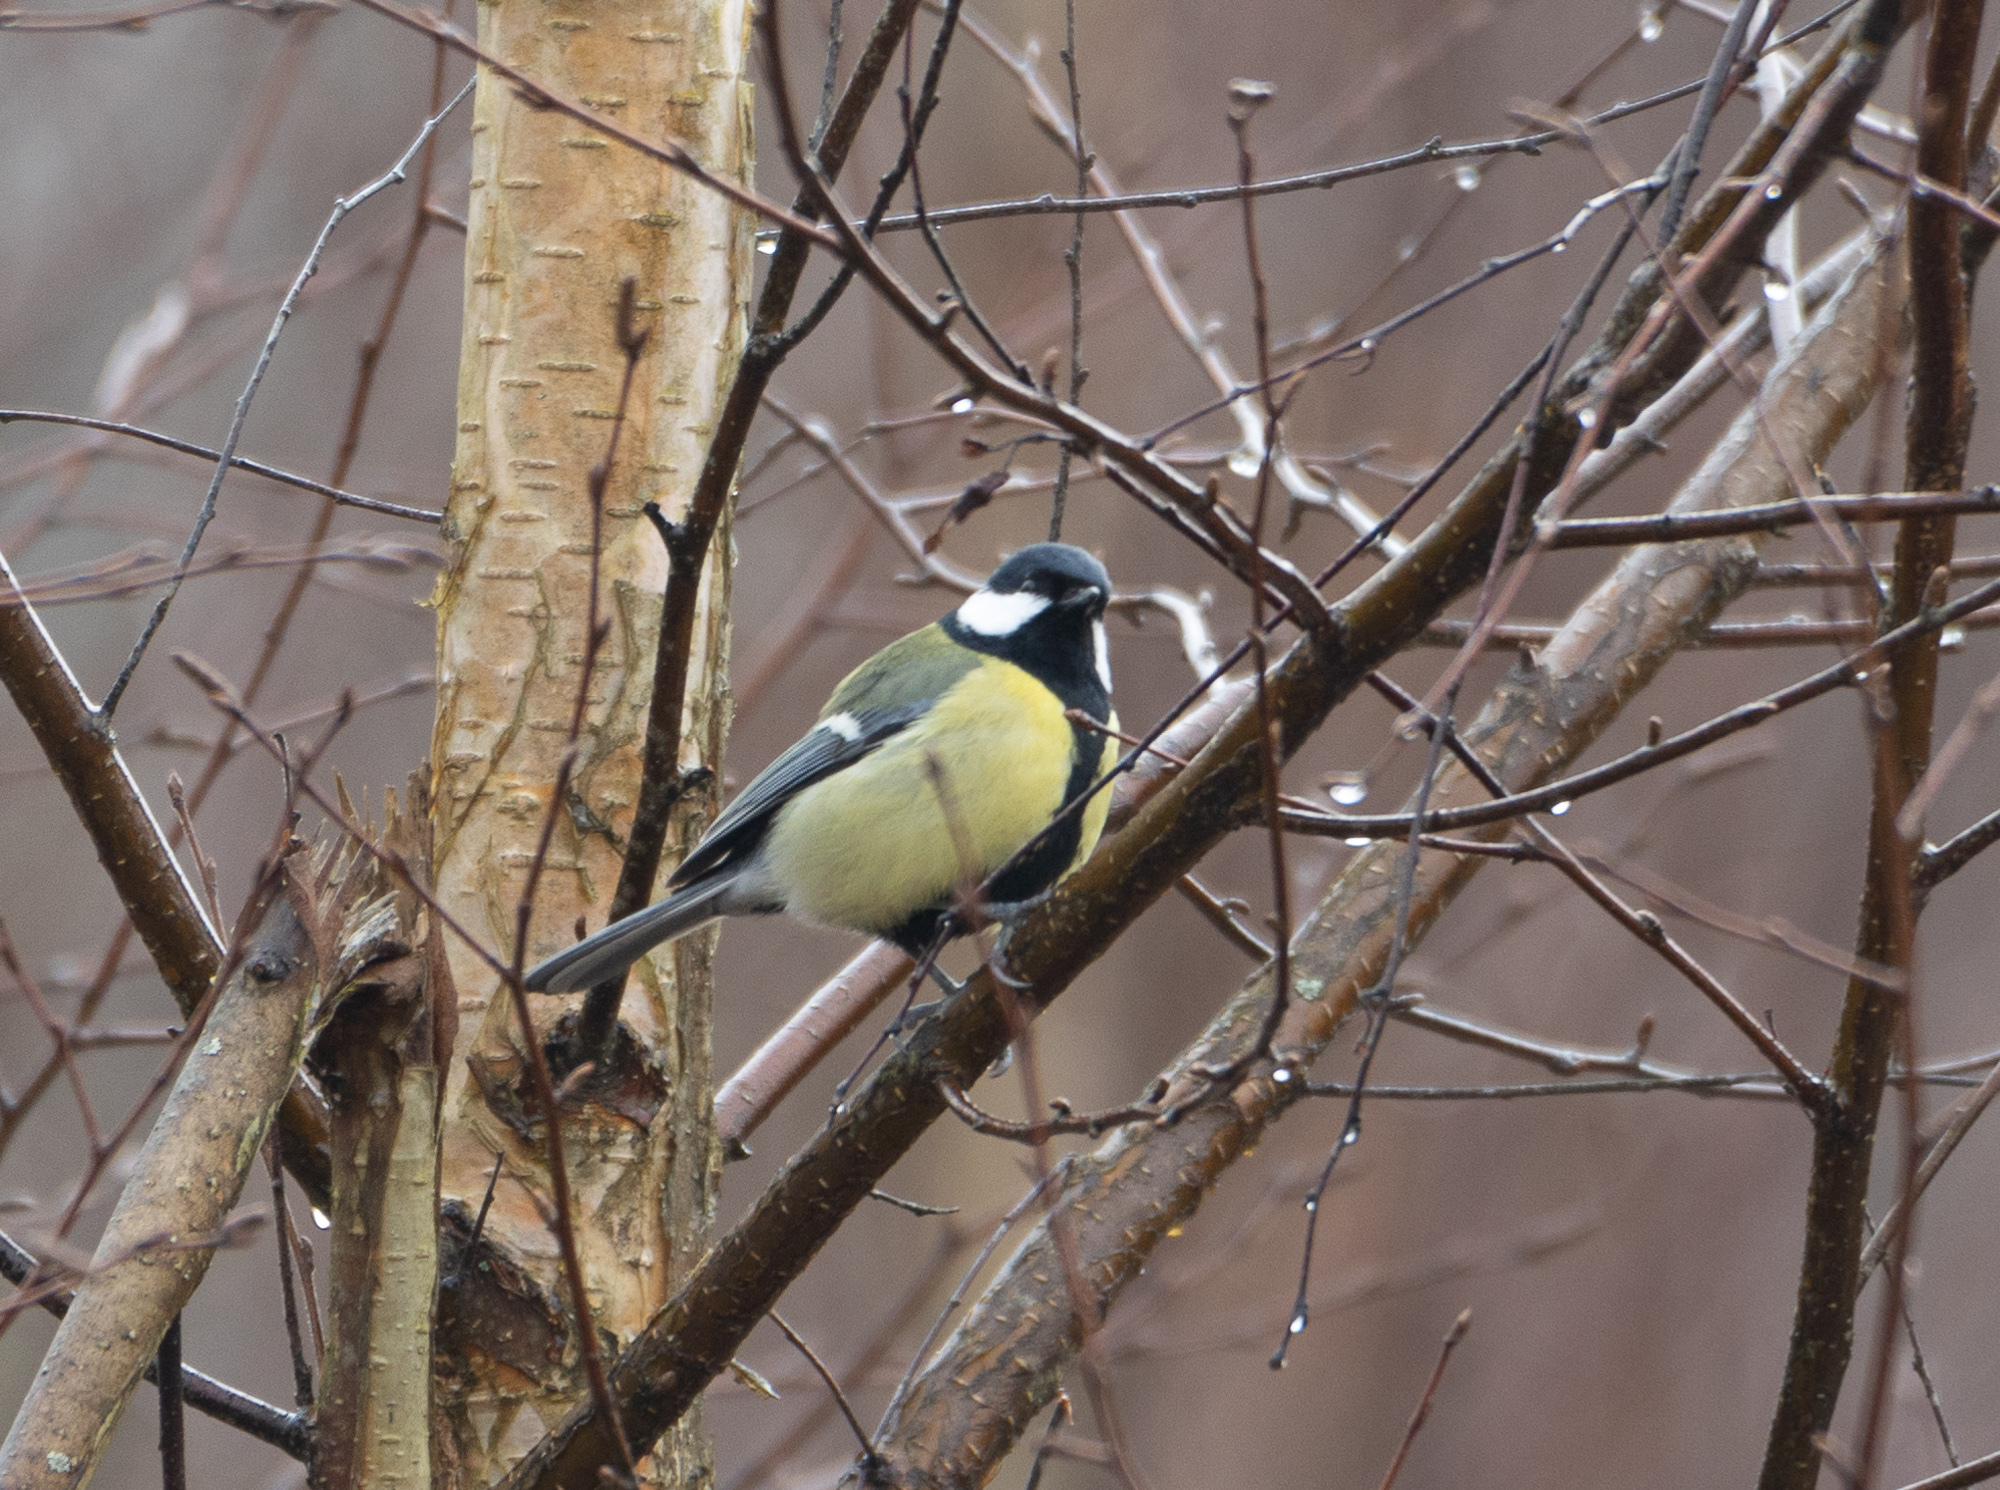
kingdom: Animalia
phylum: Chordata
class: Aves
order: Passeriformes
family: Paridae
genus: Parus
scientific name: Parus major
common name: Great tit
